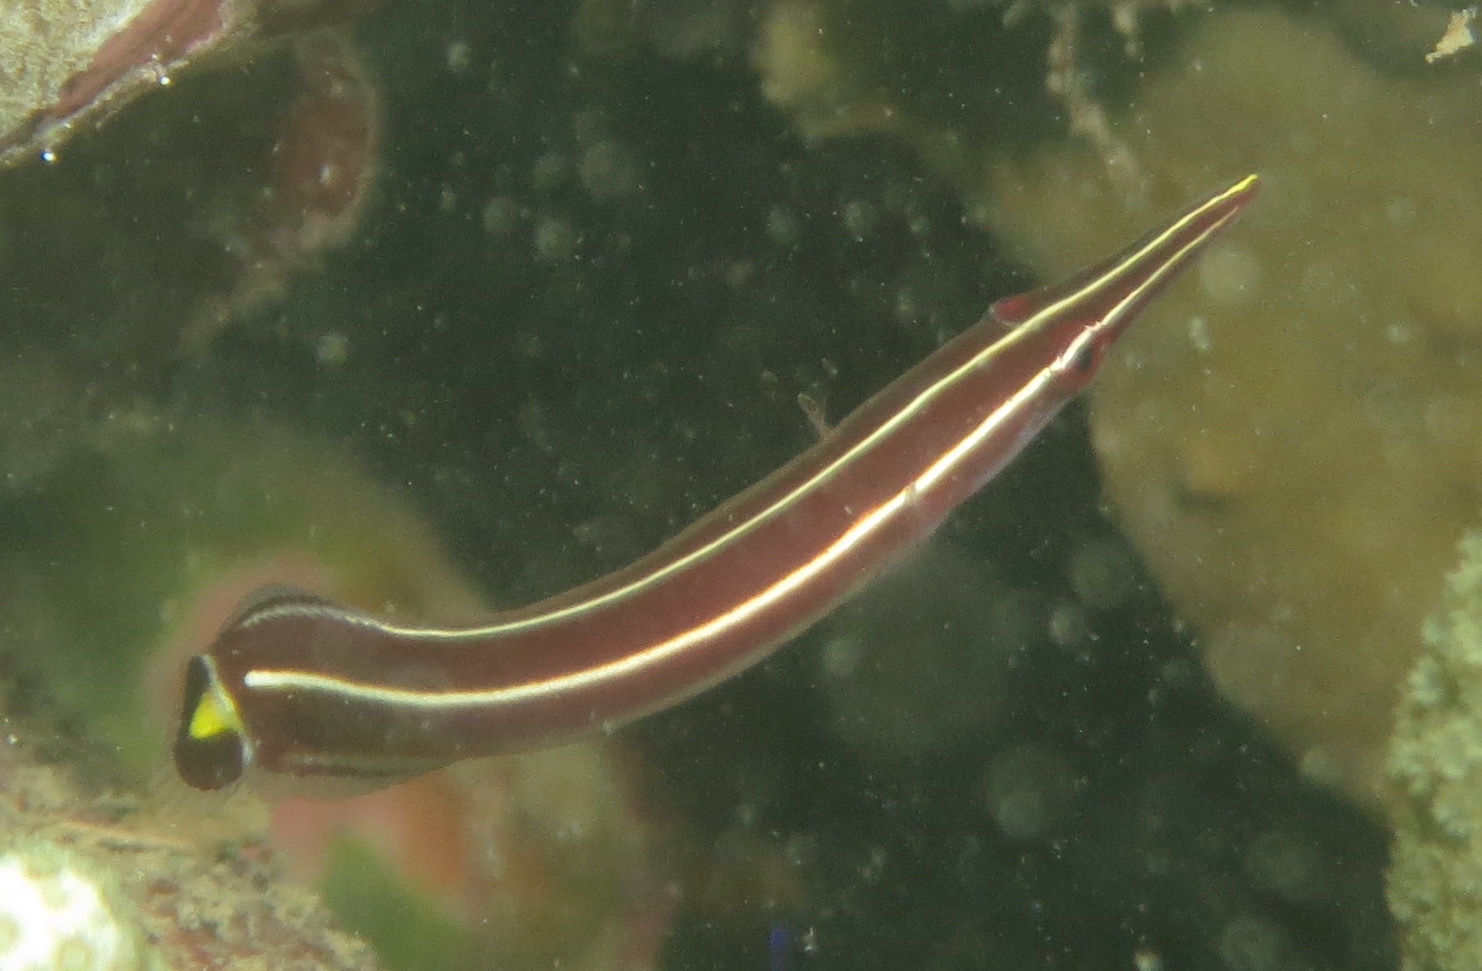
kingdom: Animalia
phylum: Chordata
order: Gobiesociformes
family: Gobiesocidae
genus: Diademichthys
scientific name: Diademichthys lineatus
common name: Urchin clingfish
